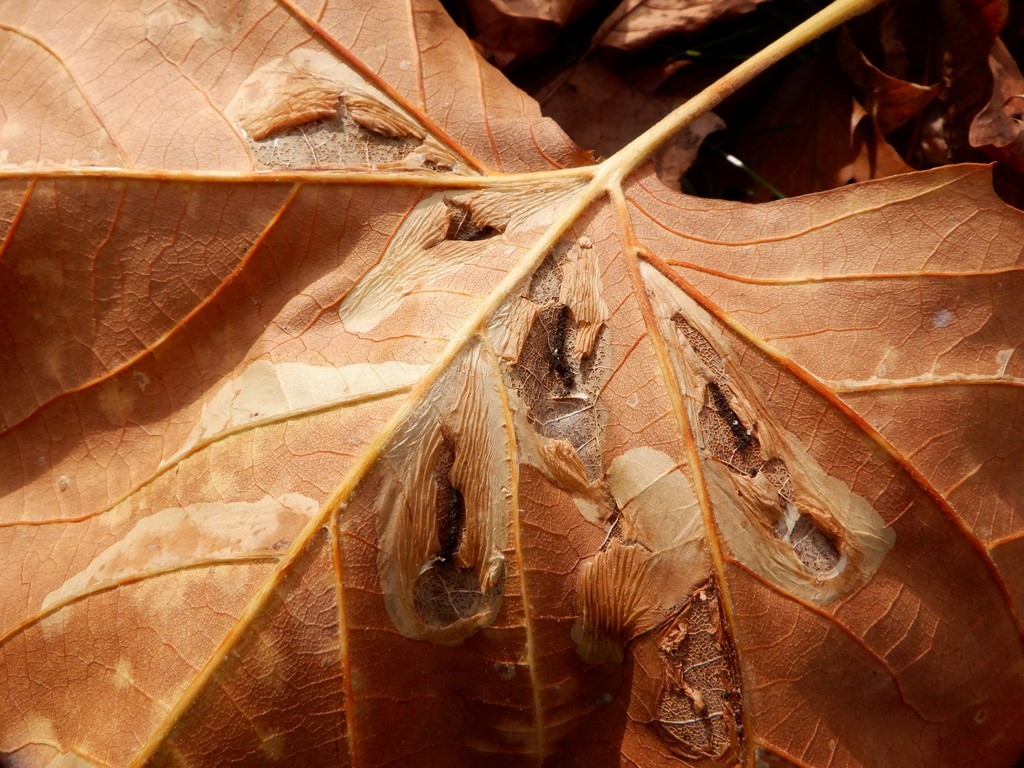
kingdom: Animalia
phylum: Arthropoda
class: Insecta
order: Lepidoptera
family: Gracillariidae
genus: Phyllonorycter
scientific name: Phyllonorycter platani
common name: London midget
